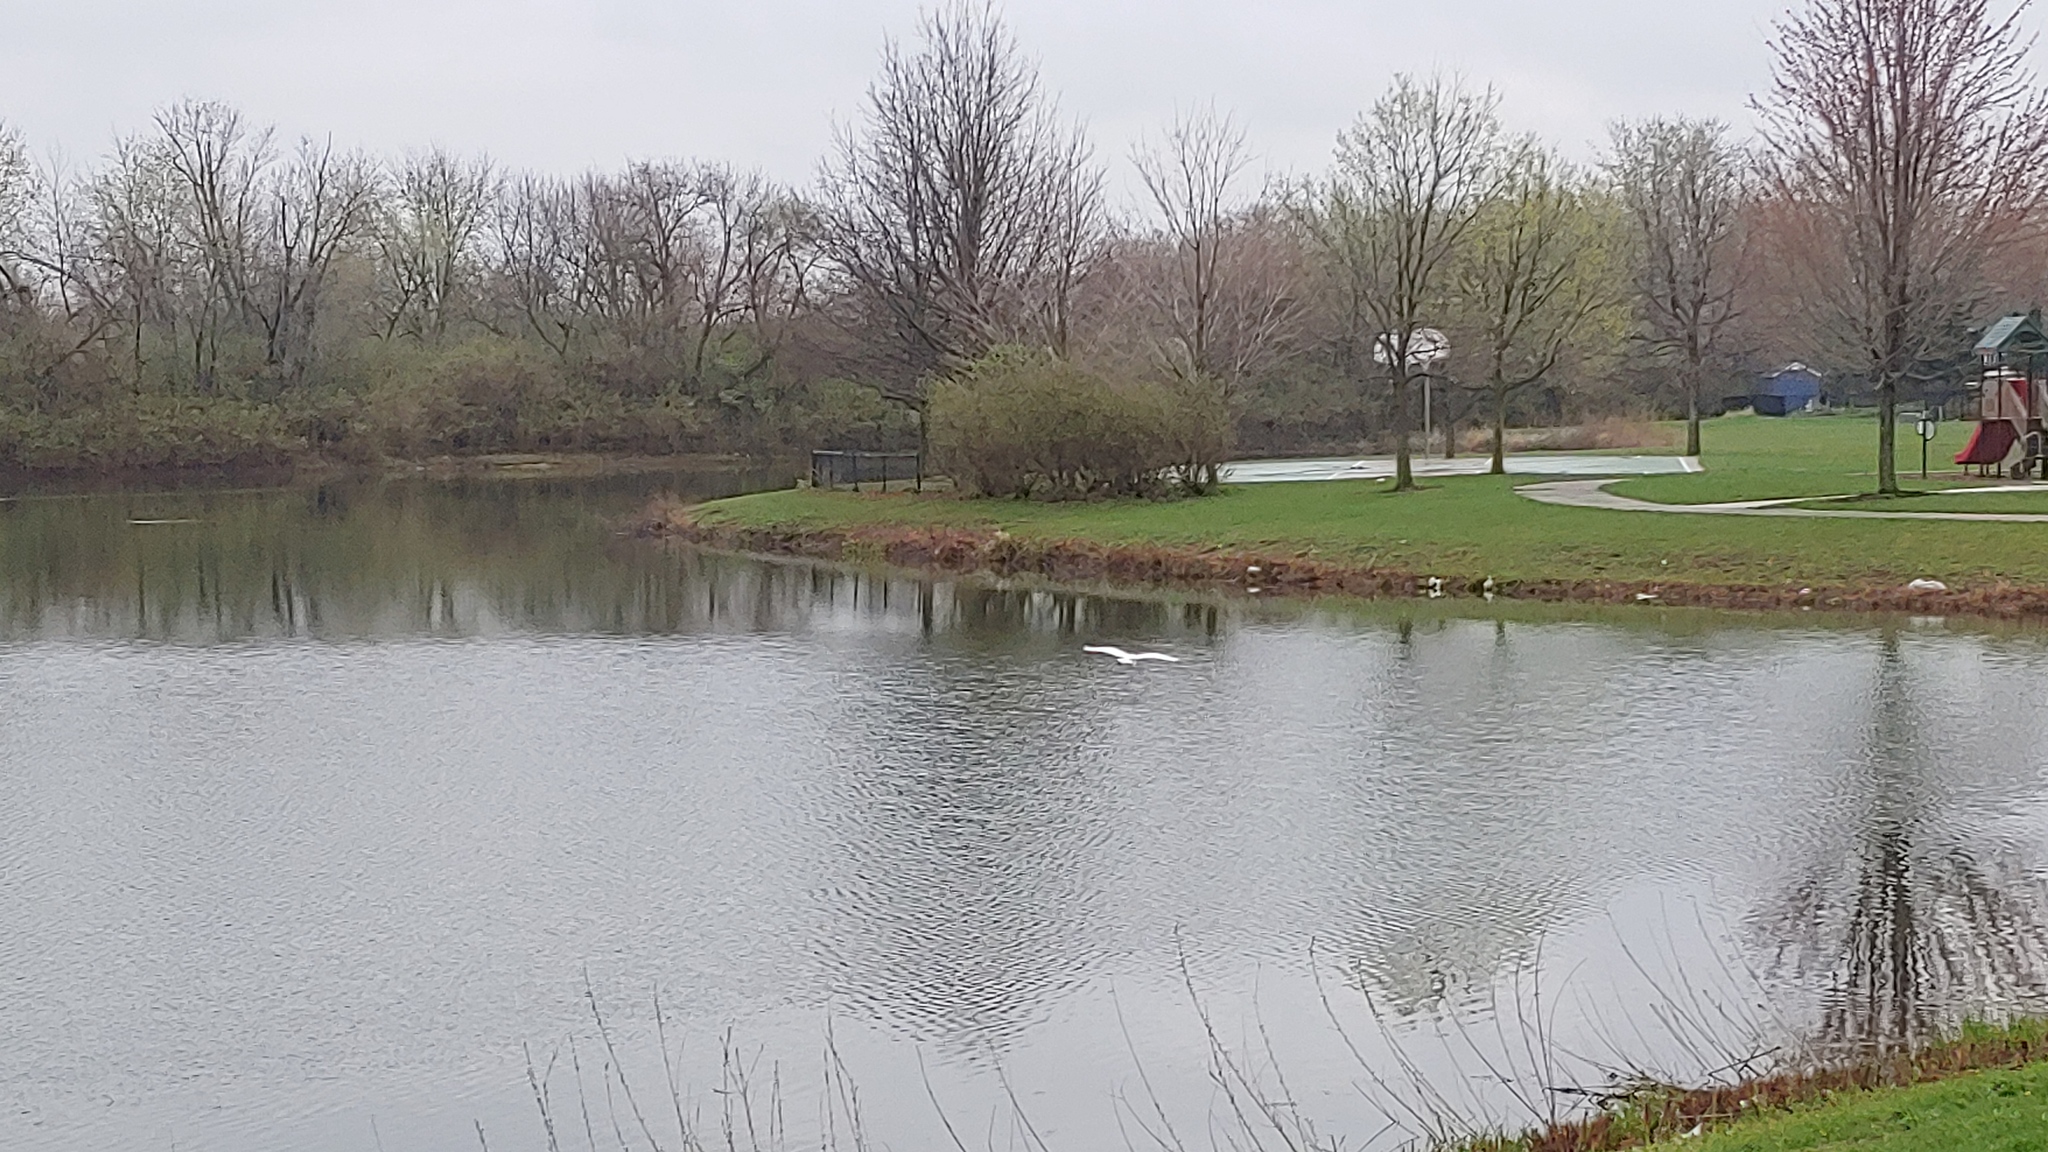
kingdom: Animalia
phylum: Chordata
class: Aves
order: Pelecaniformes
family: Ardeidae
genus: Ardea
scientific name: Ardea alba
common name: Great egret
